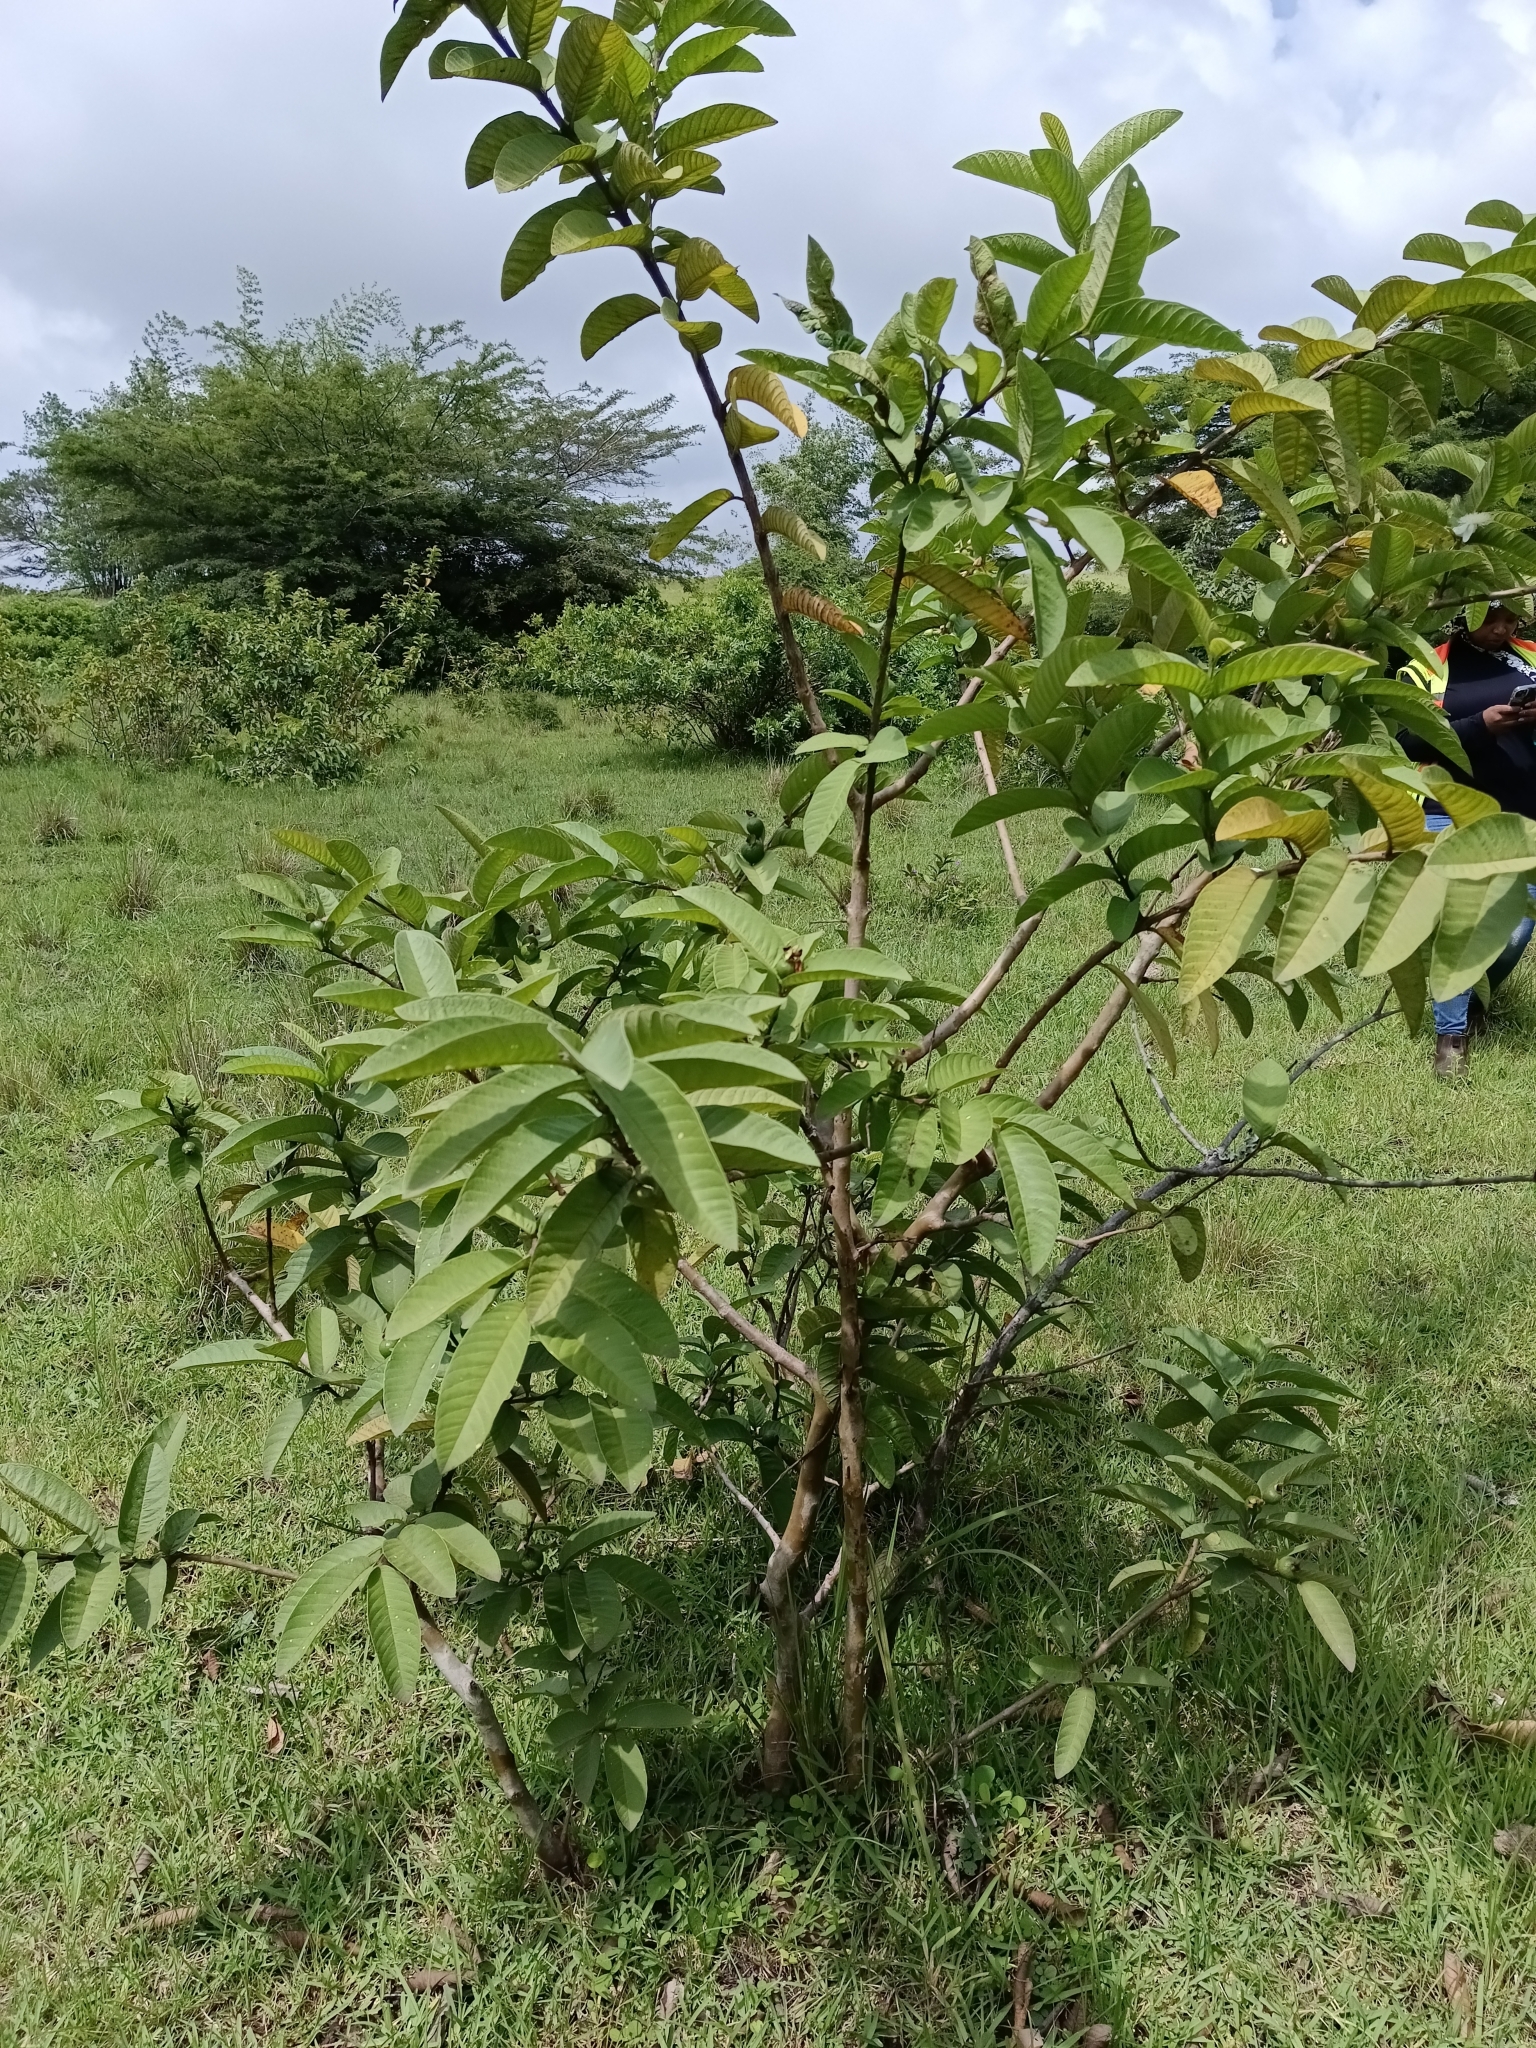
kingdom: Plantae
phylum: Tracheophyta
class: Magnoliopsida
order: Myrtales
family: Myrtaceae
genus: Psidium
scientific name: Psidium guajava
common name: Guava
